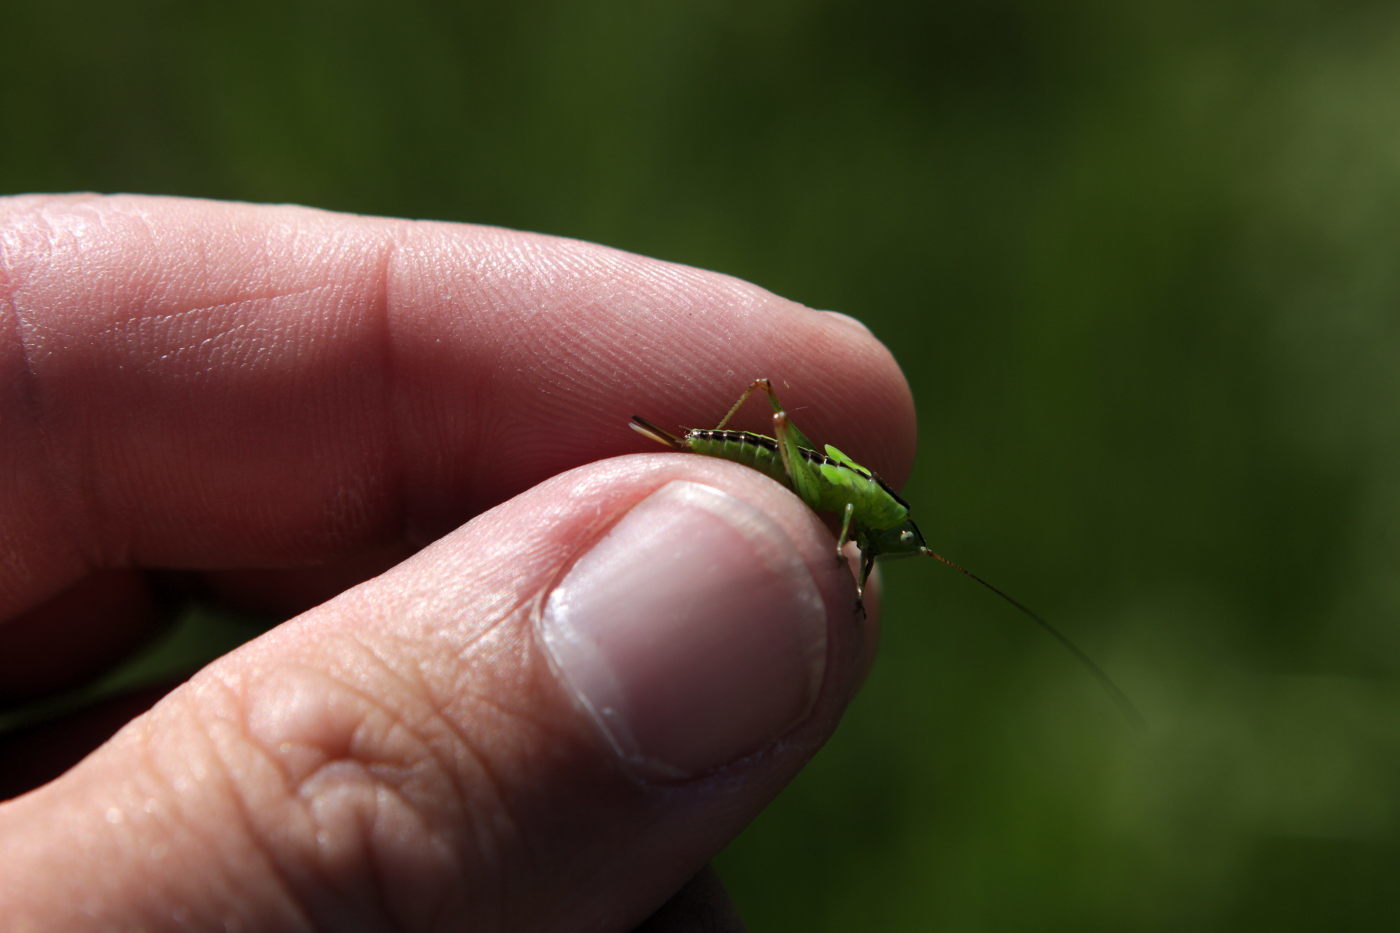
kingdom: Animalia
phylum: Arthropoda
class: Insecta
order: Orthoptera
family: Tettigoniidae
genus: Conocephalus
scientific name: Conocephalus fuscus
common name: Long-winged conehead
